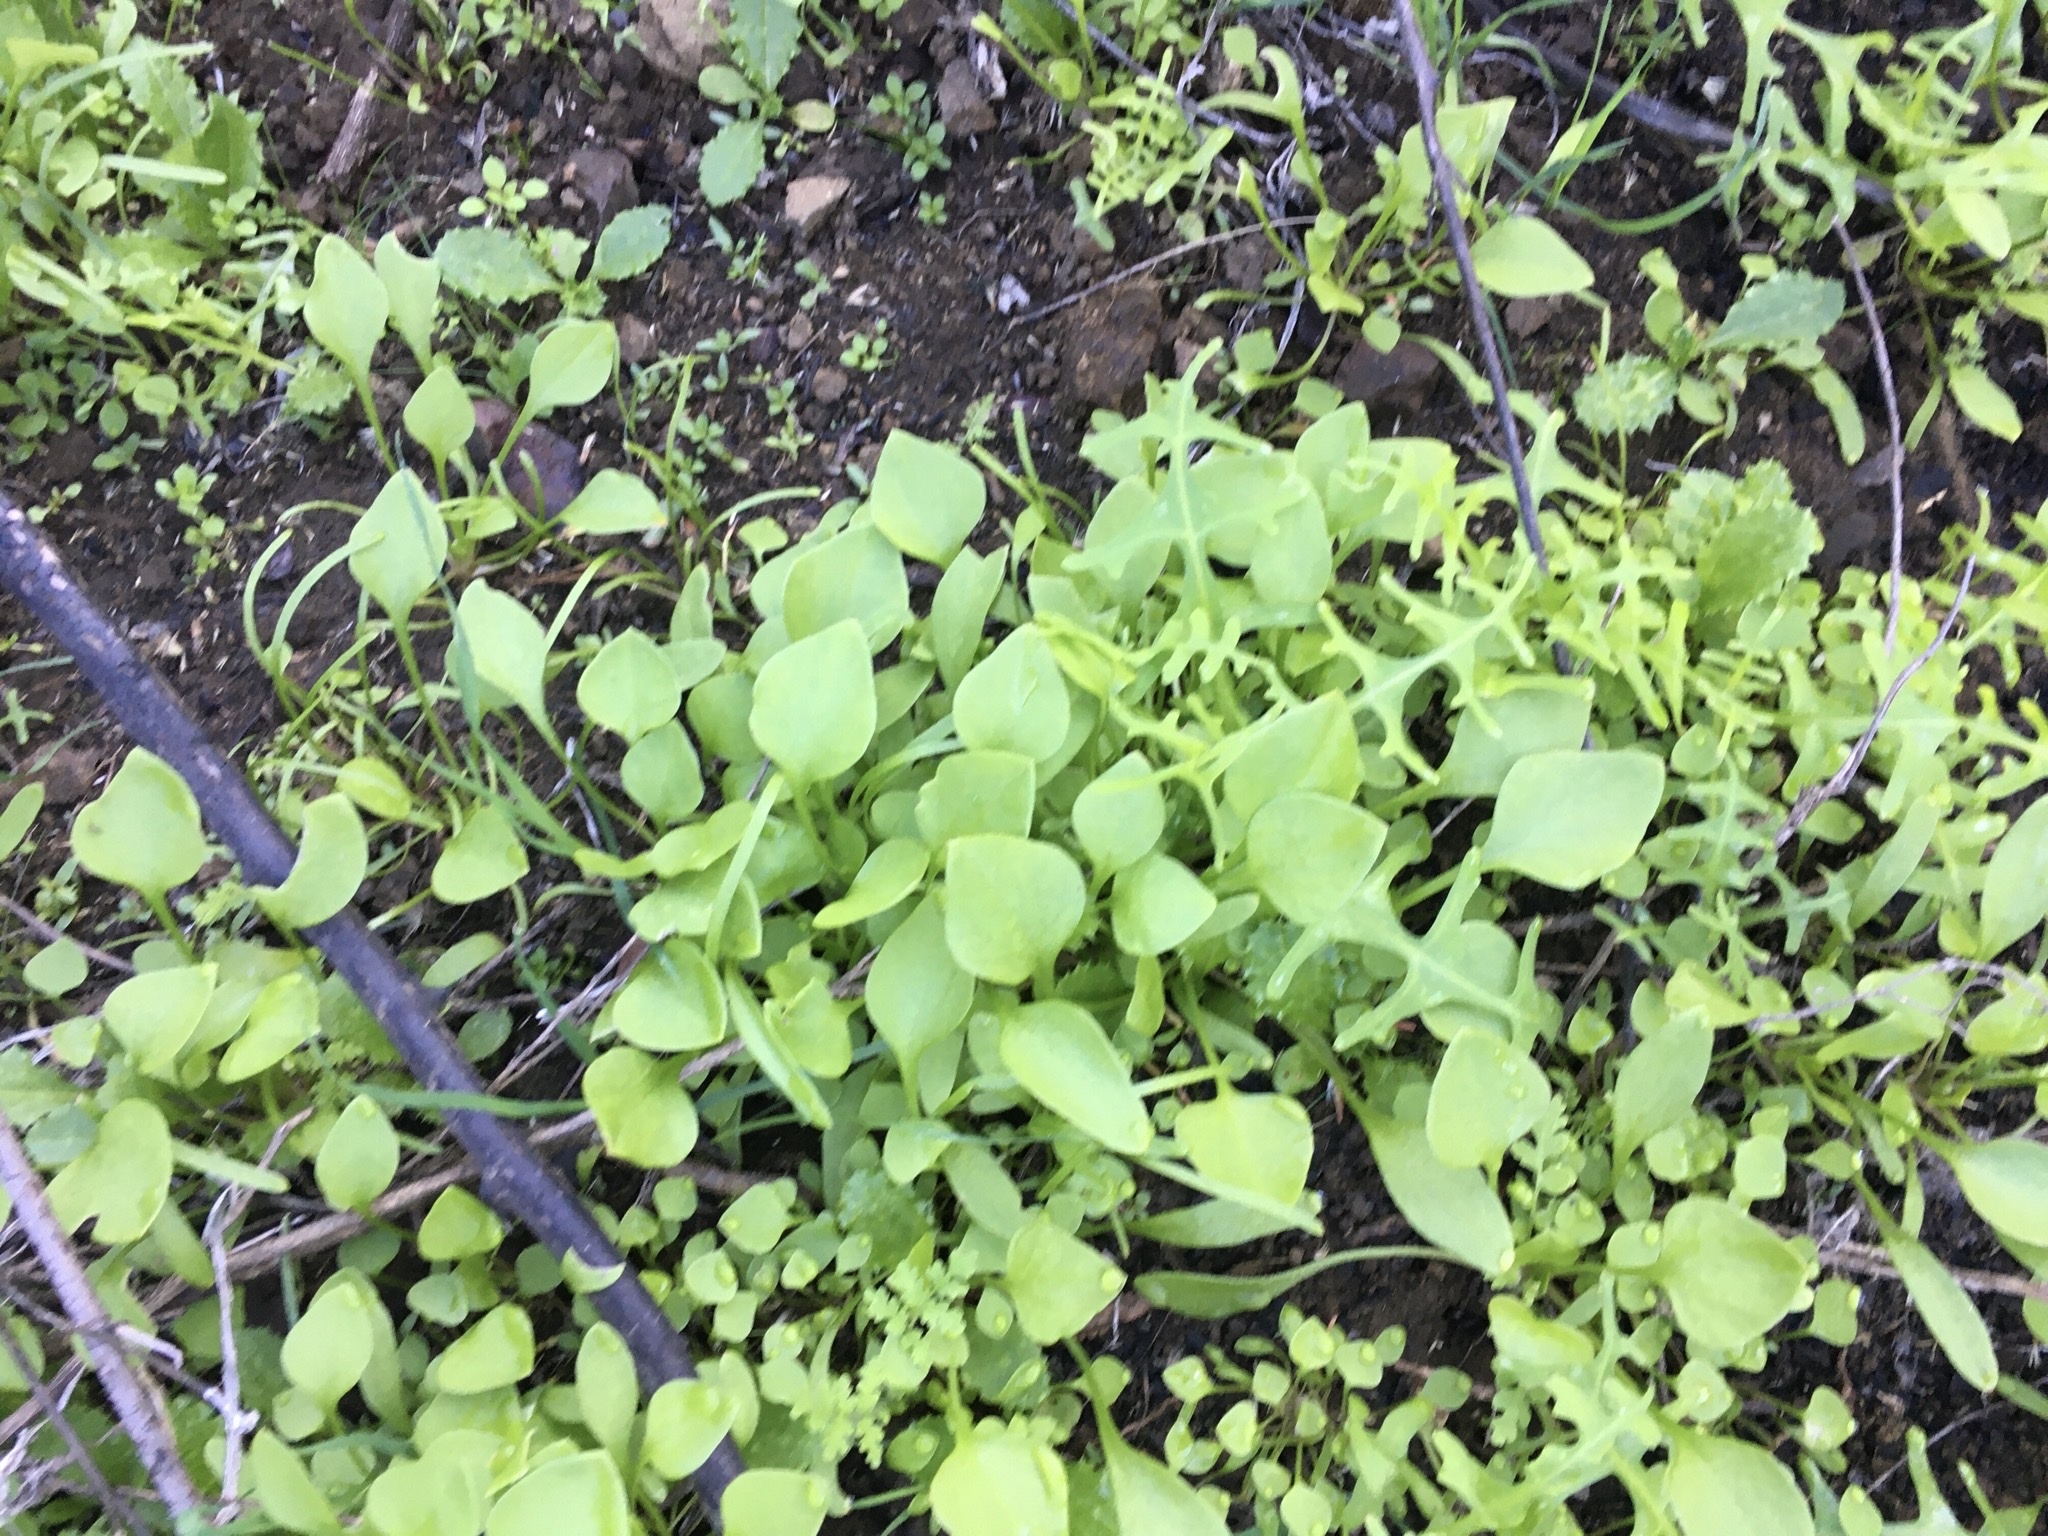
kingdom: Plantae
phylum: Tracheophyta
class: Magnoliopsida
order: Caryophyllales
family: Montiaceae
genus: Claytonia
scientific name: Claytonia perfoliata
